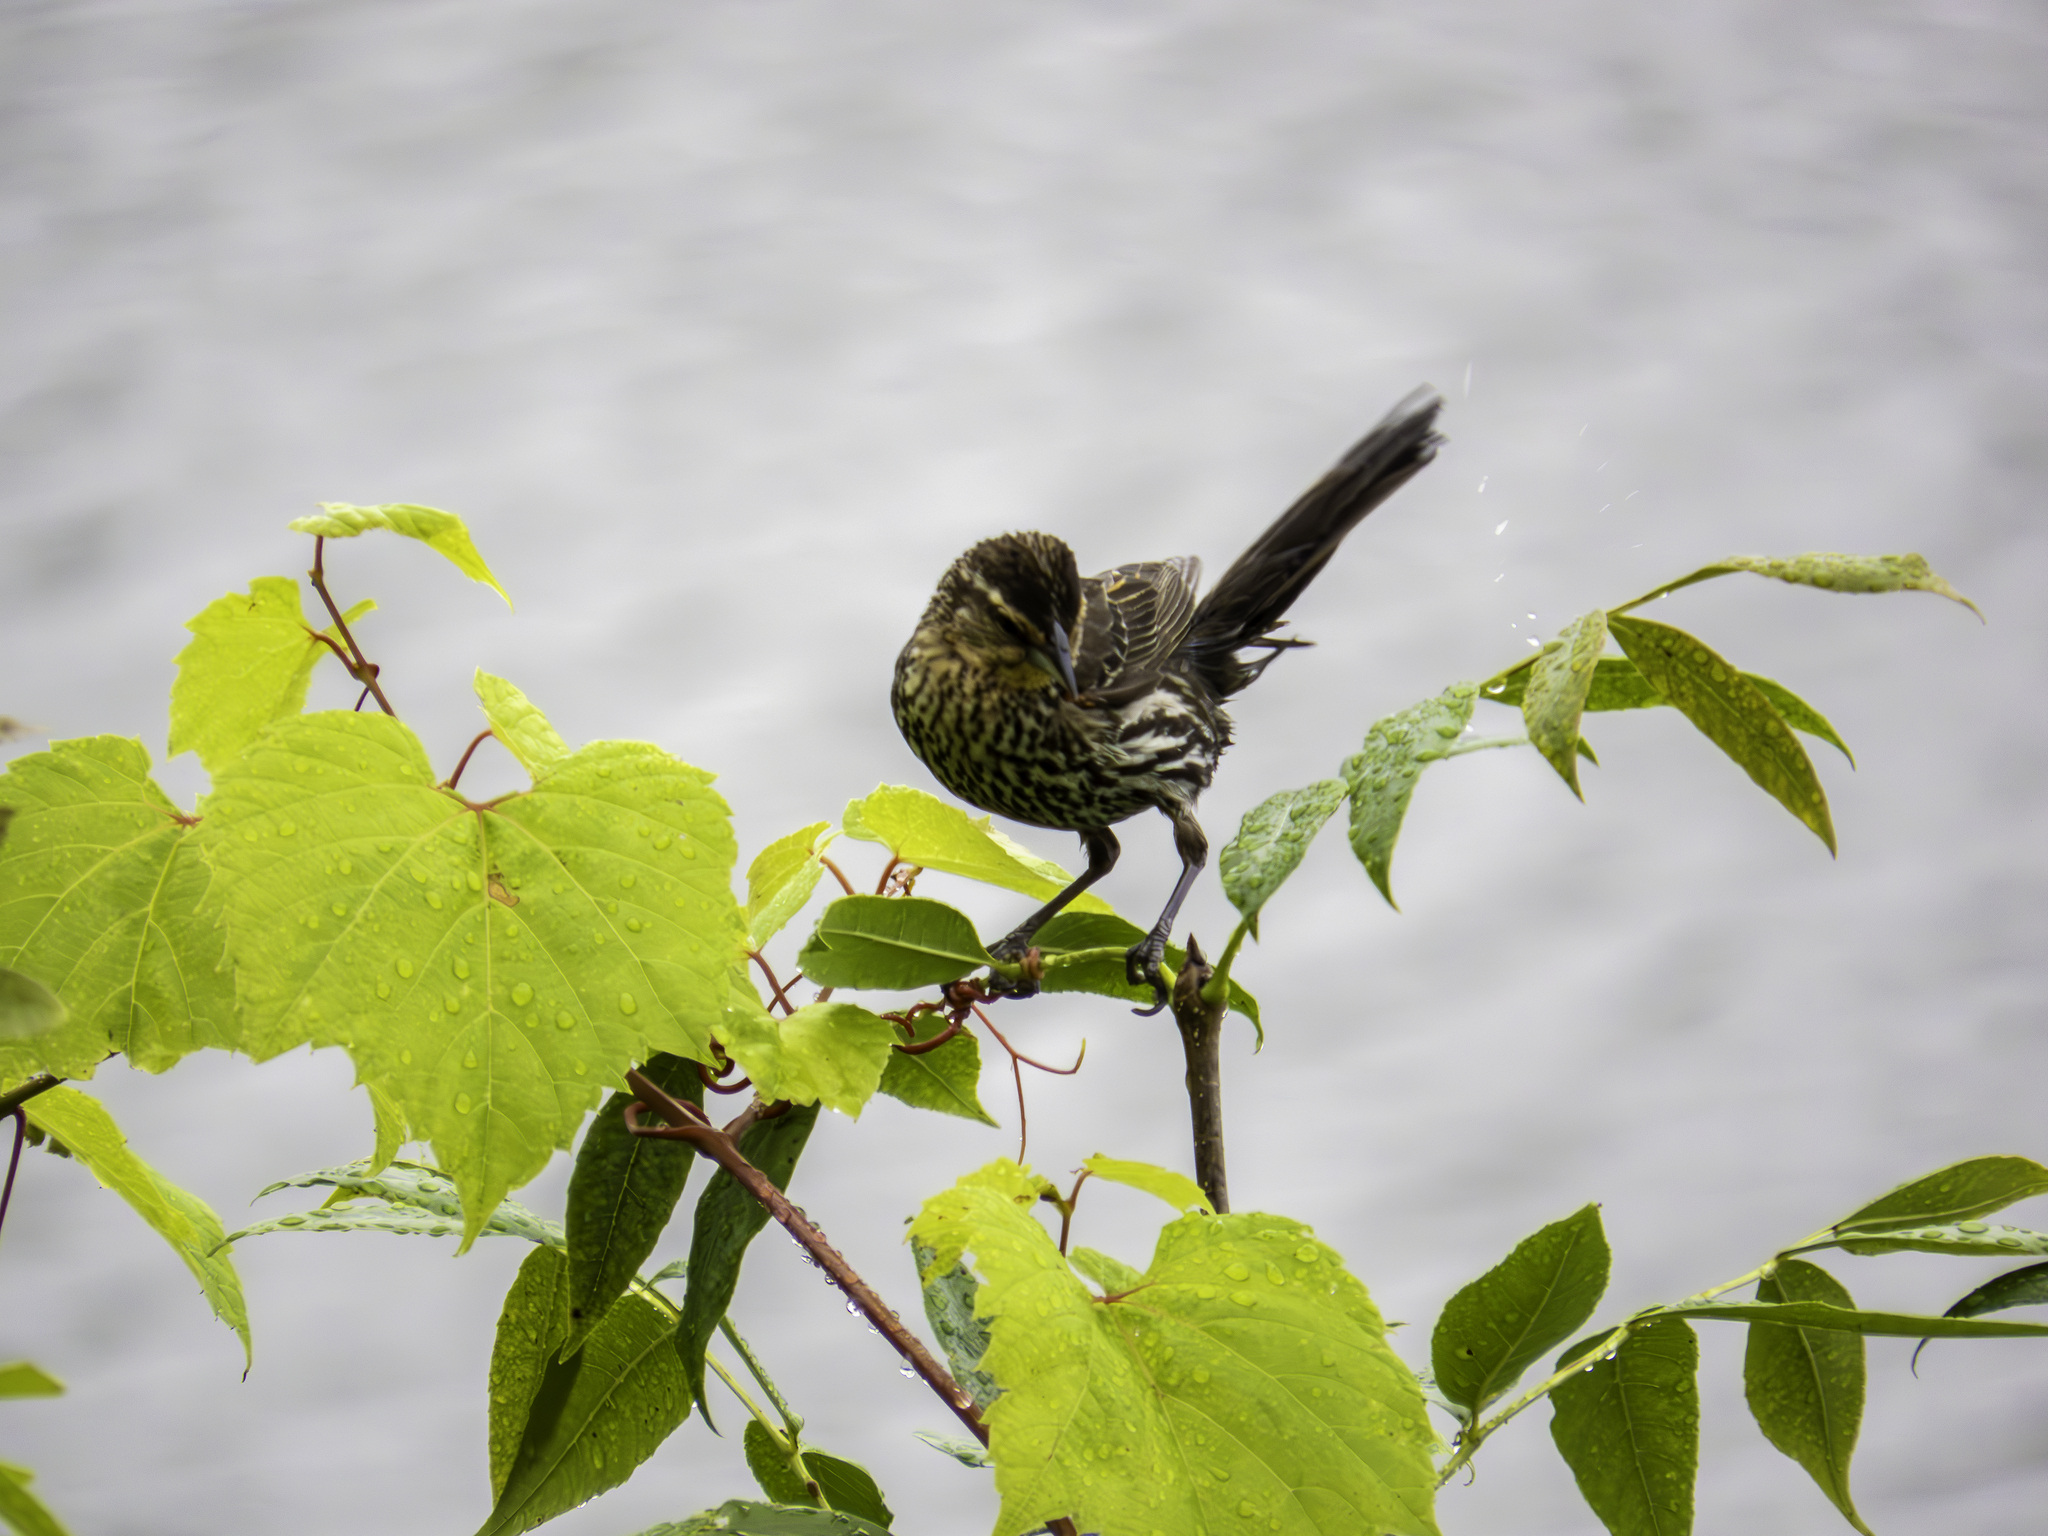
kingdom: Animalia
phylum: Chordata
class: Aves
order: Passeriformes
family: Icteridae
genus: Agelaius
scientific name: Agelaius phoeniceus
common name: Red-winged blackbird
